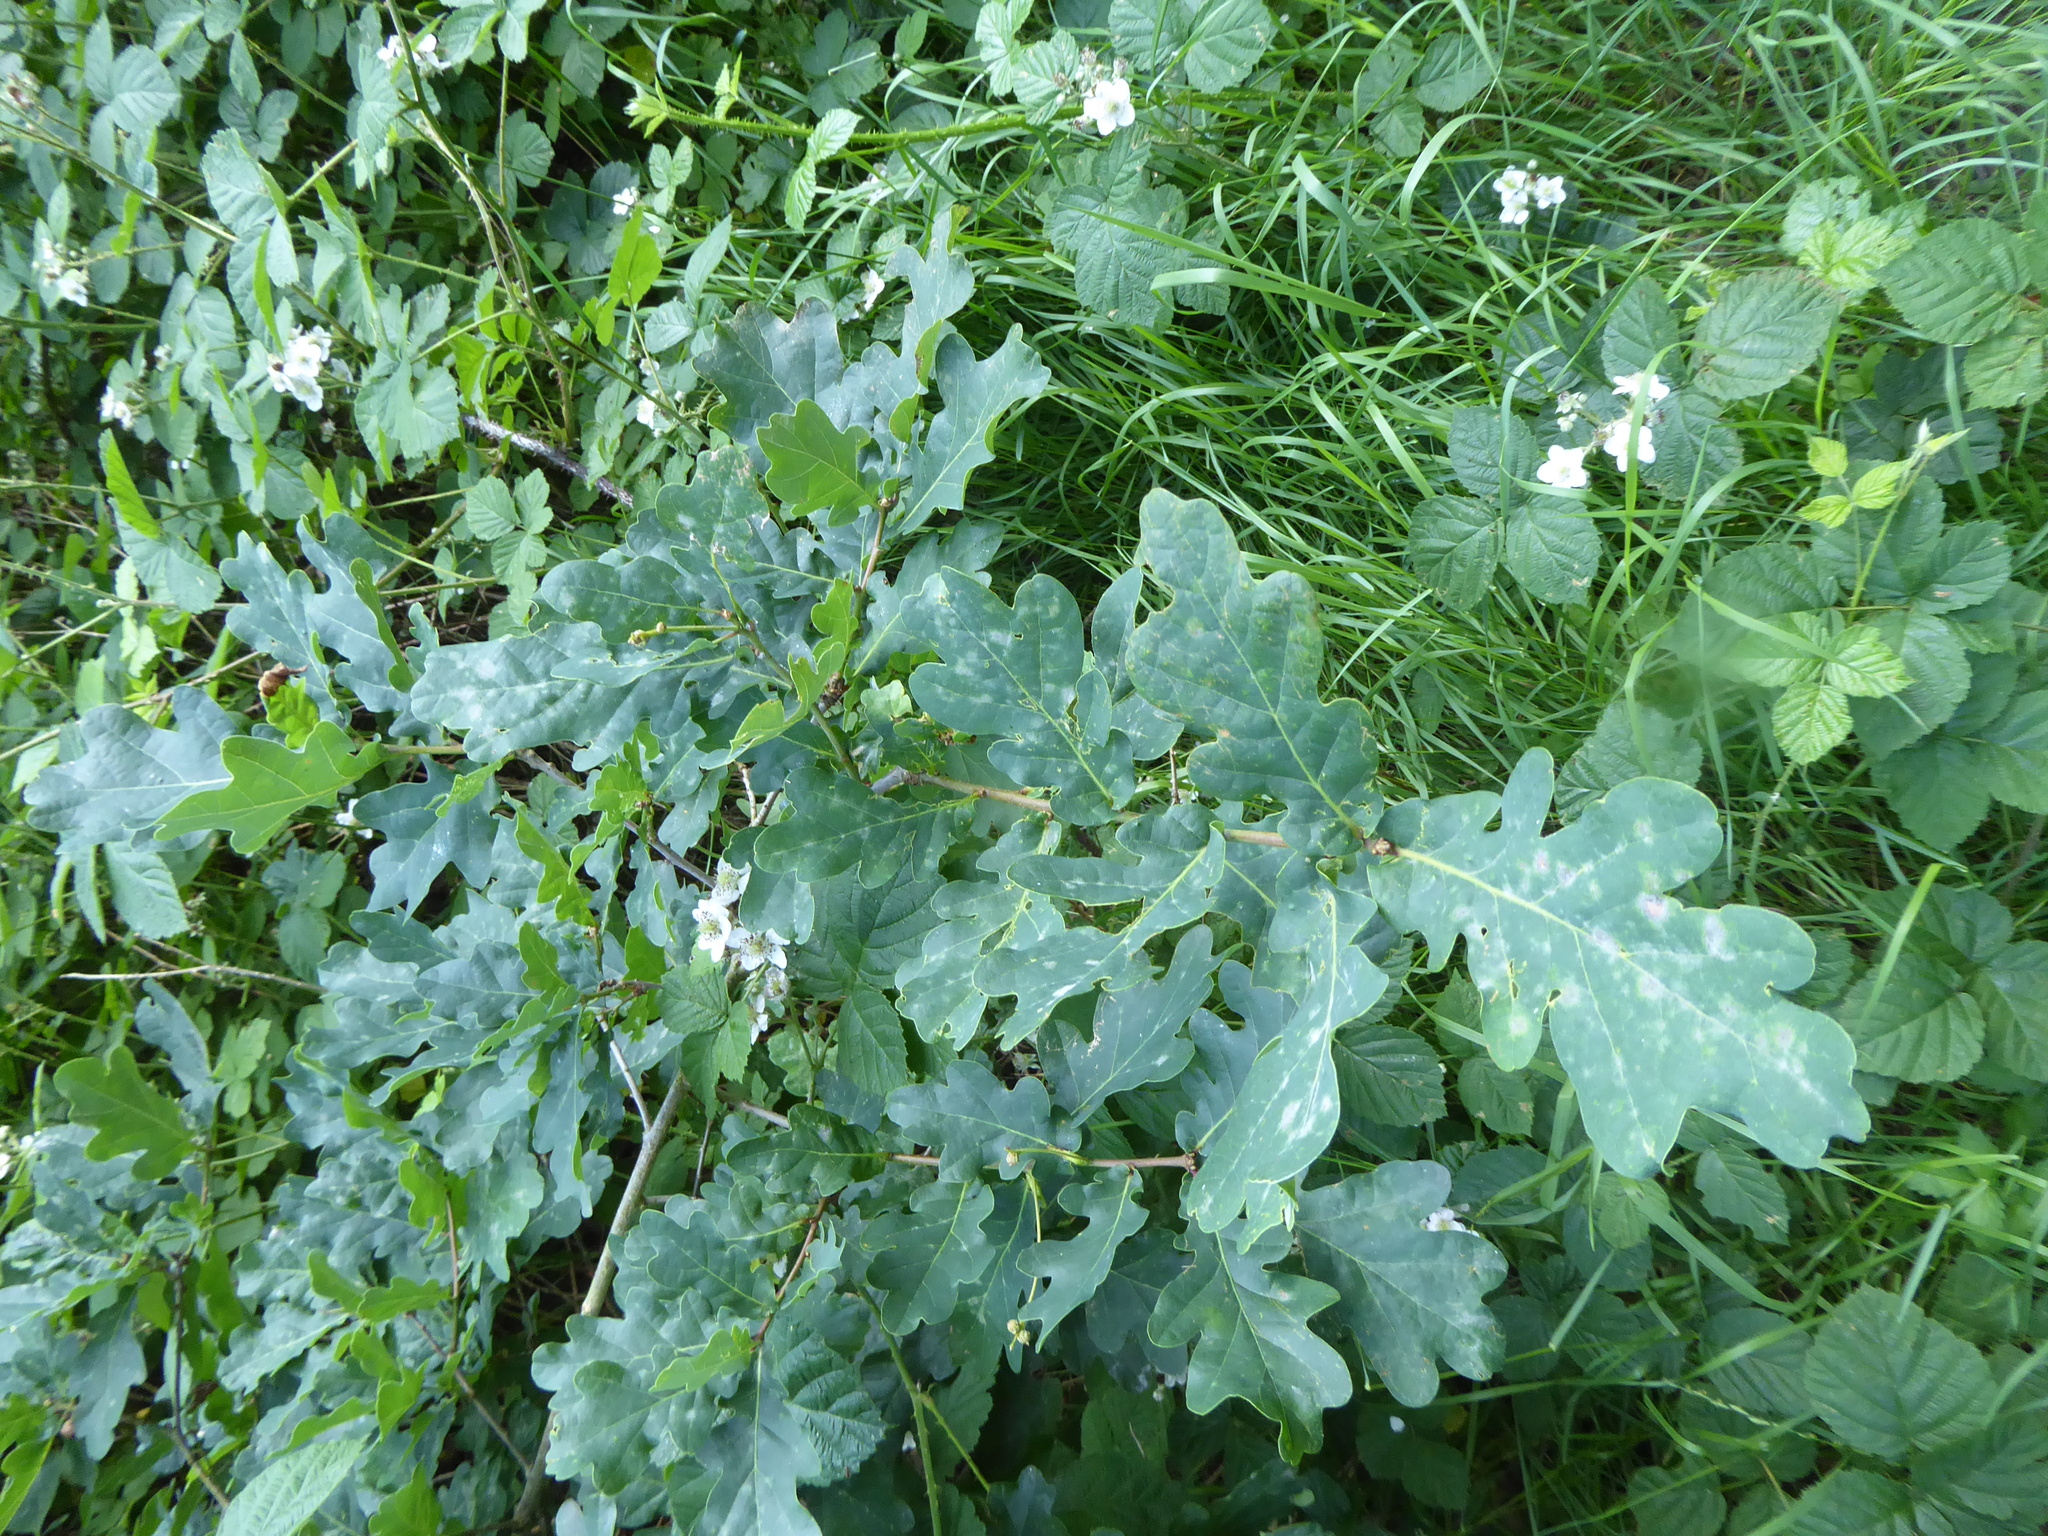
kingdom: Plantae
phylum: Tracheophyta
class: Magnoliopsida
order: Fagales
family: Fagaceae
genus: Quercus
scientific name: Quercus robur
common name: Pedunculate oak
